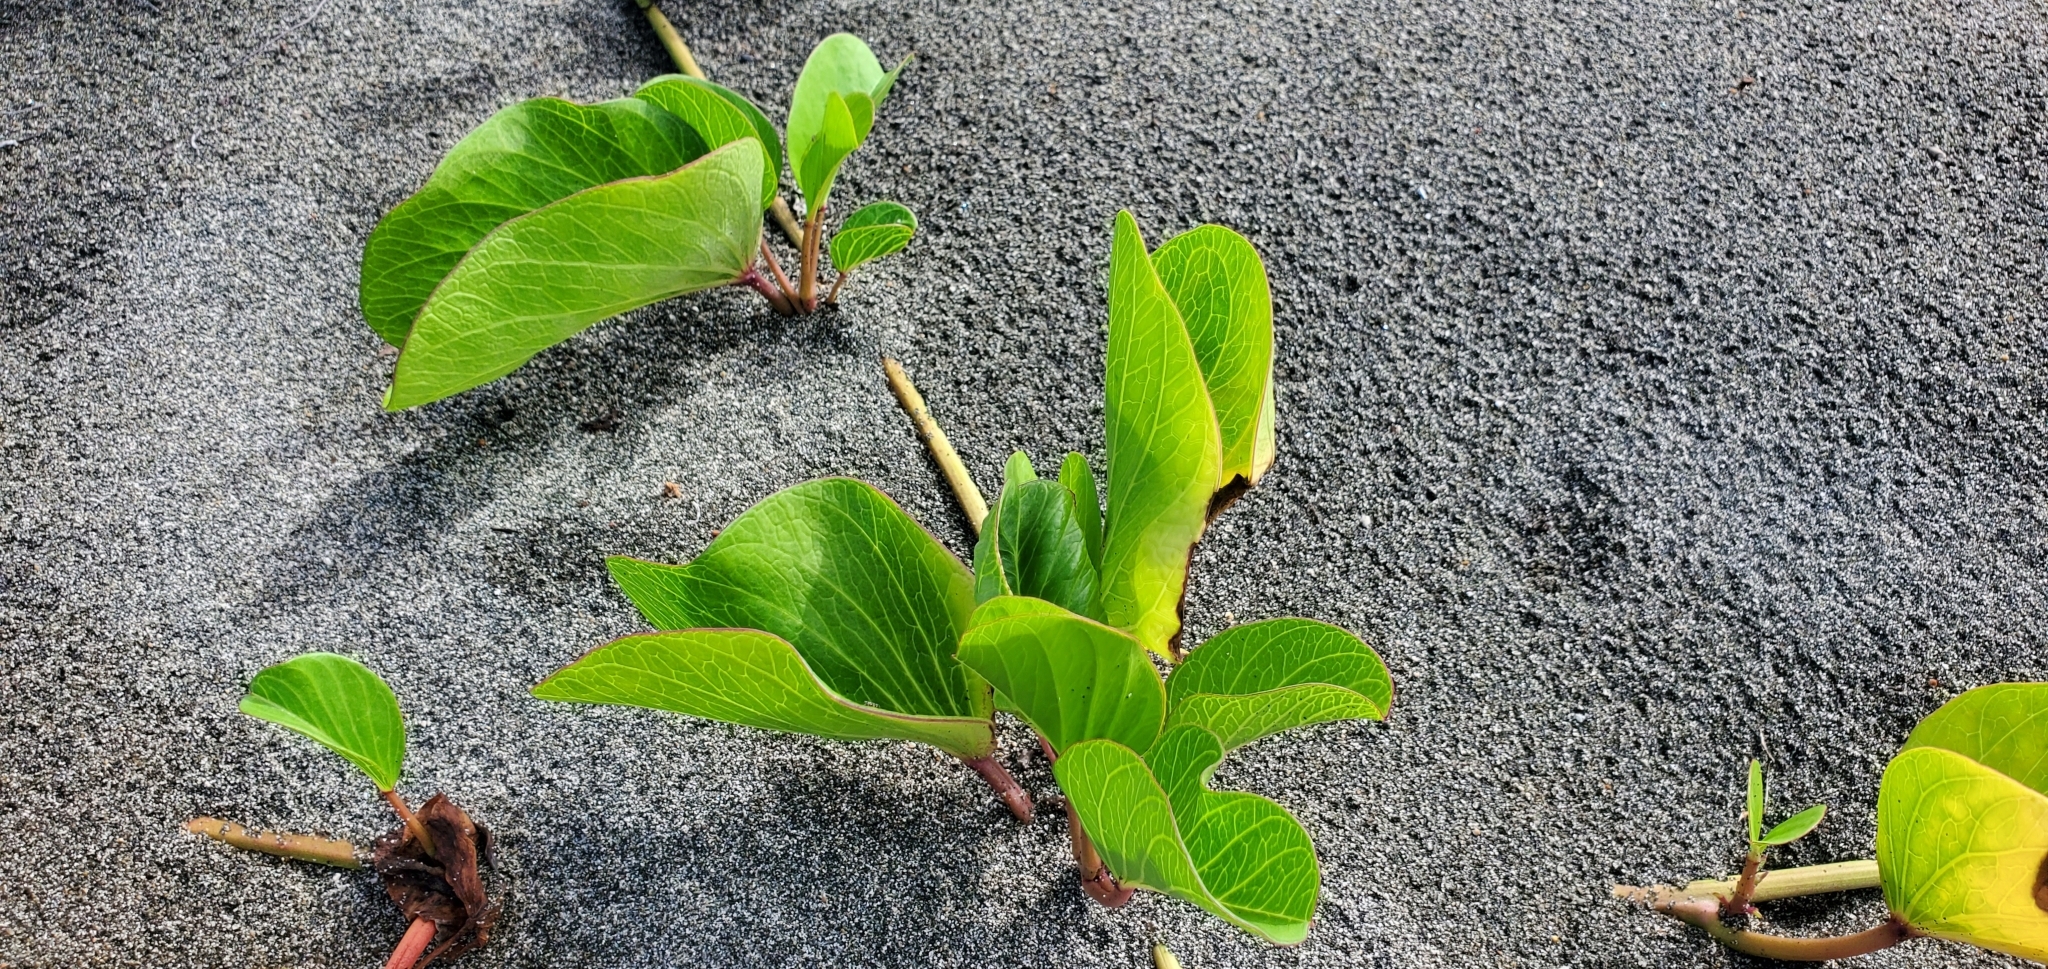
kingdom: Plantae
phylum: Tracheophyta
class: Magnoliopsida
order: Solanales
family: Convolvulaceae
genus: Ipomoea
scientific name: Ipomoea pes-caprae
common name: Beach morning glory
